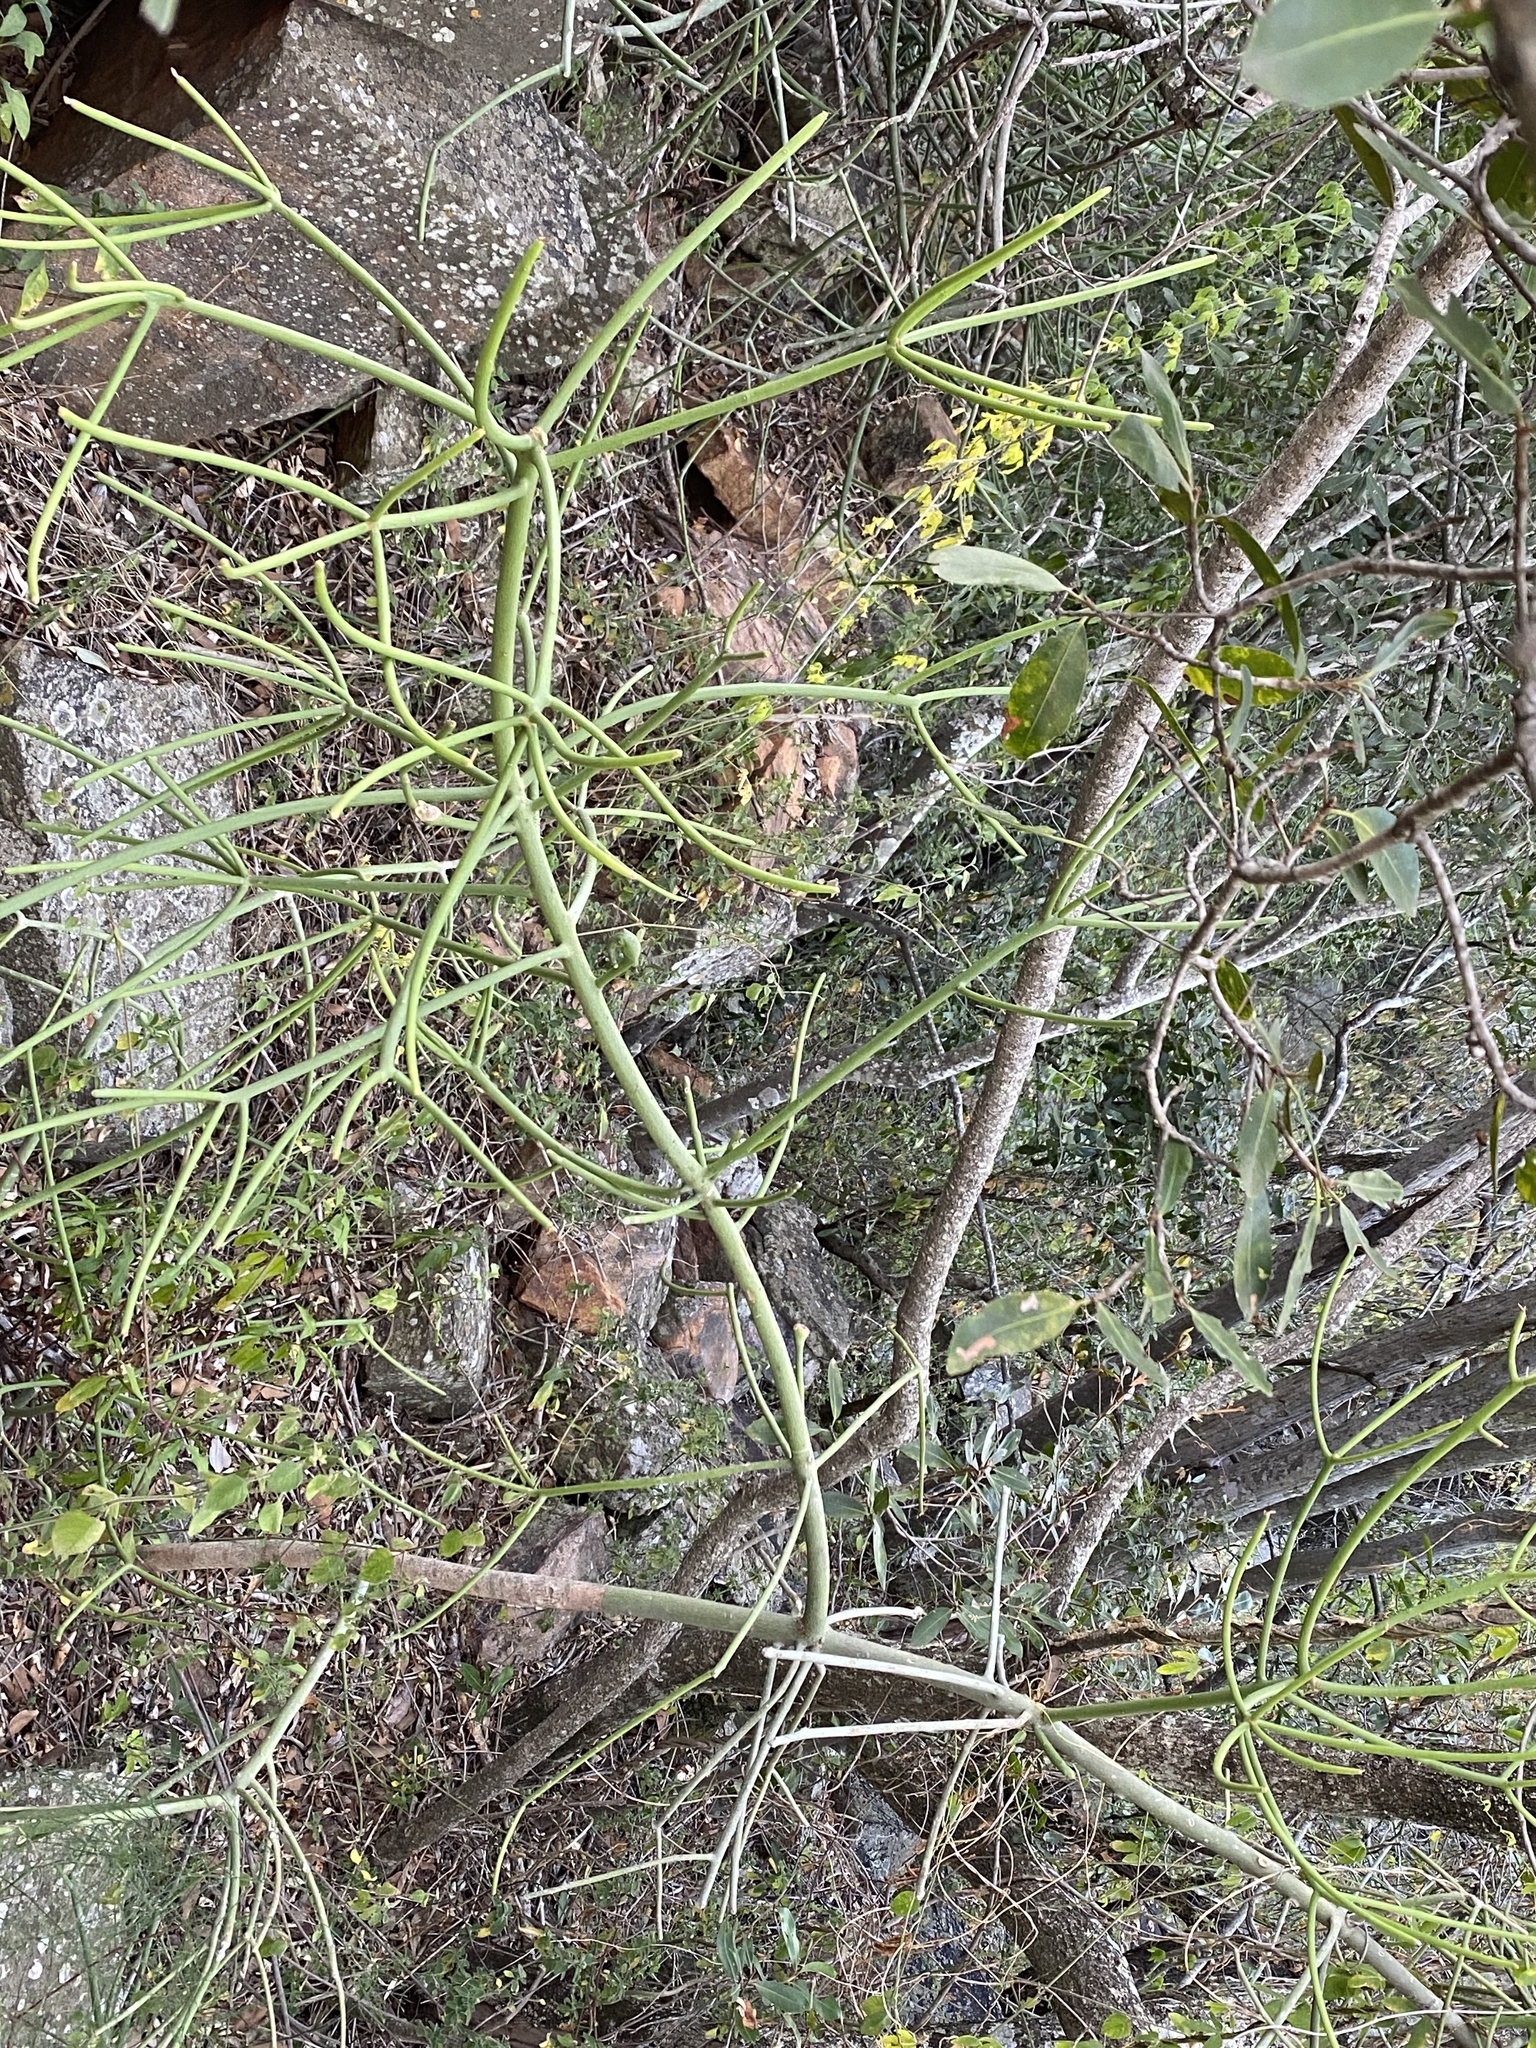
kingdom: Plantae
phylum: Tracheophyta
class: Magnoliopsida
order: Malpighiales
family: Euphorbiaceae
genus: Euphorbia
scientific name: Euphorbia tirucalli
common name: Indiantree spurge
